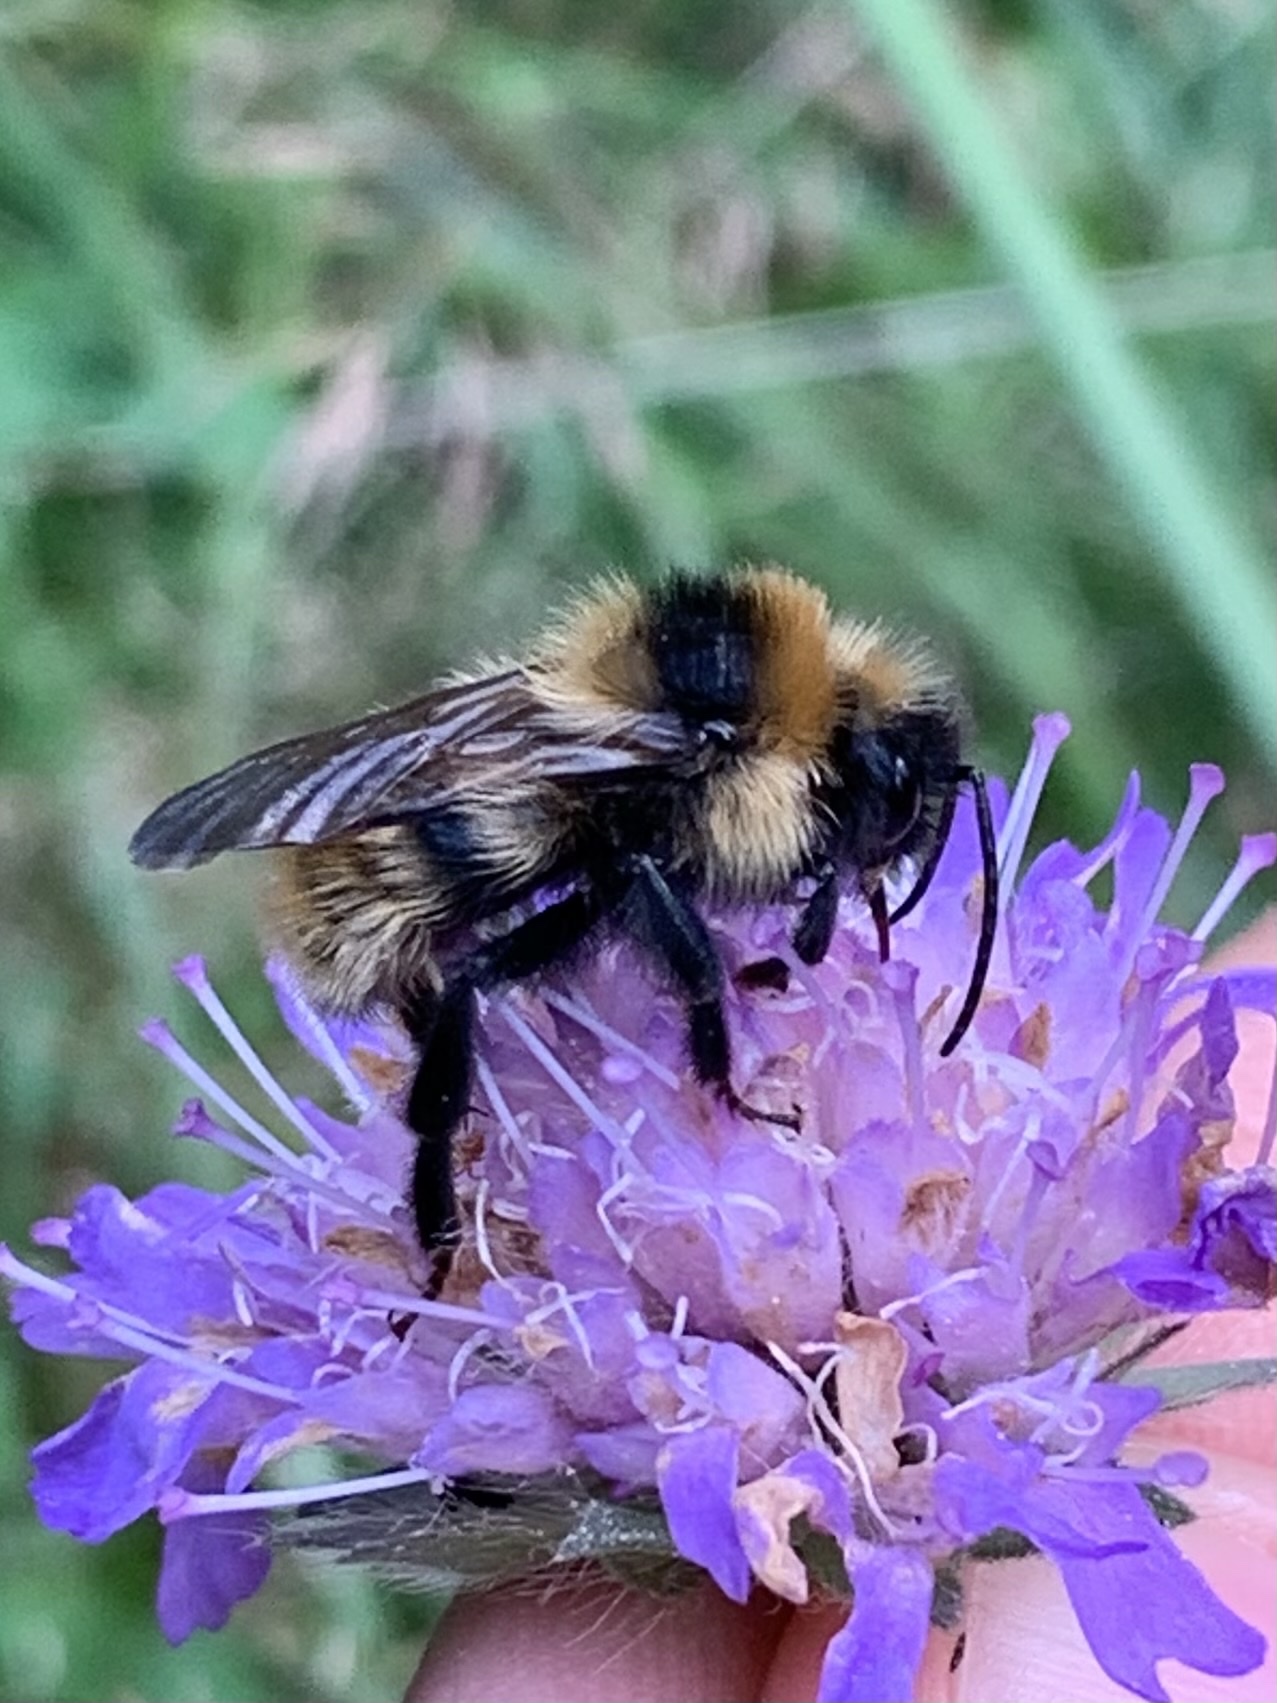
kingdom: Animalia
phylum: Arthropoda
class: Insecta
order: Hymenoptera
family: Apidae
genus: Bombus
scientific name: Bombus campestris
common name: Field cuckoo-bee
